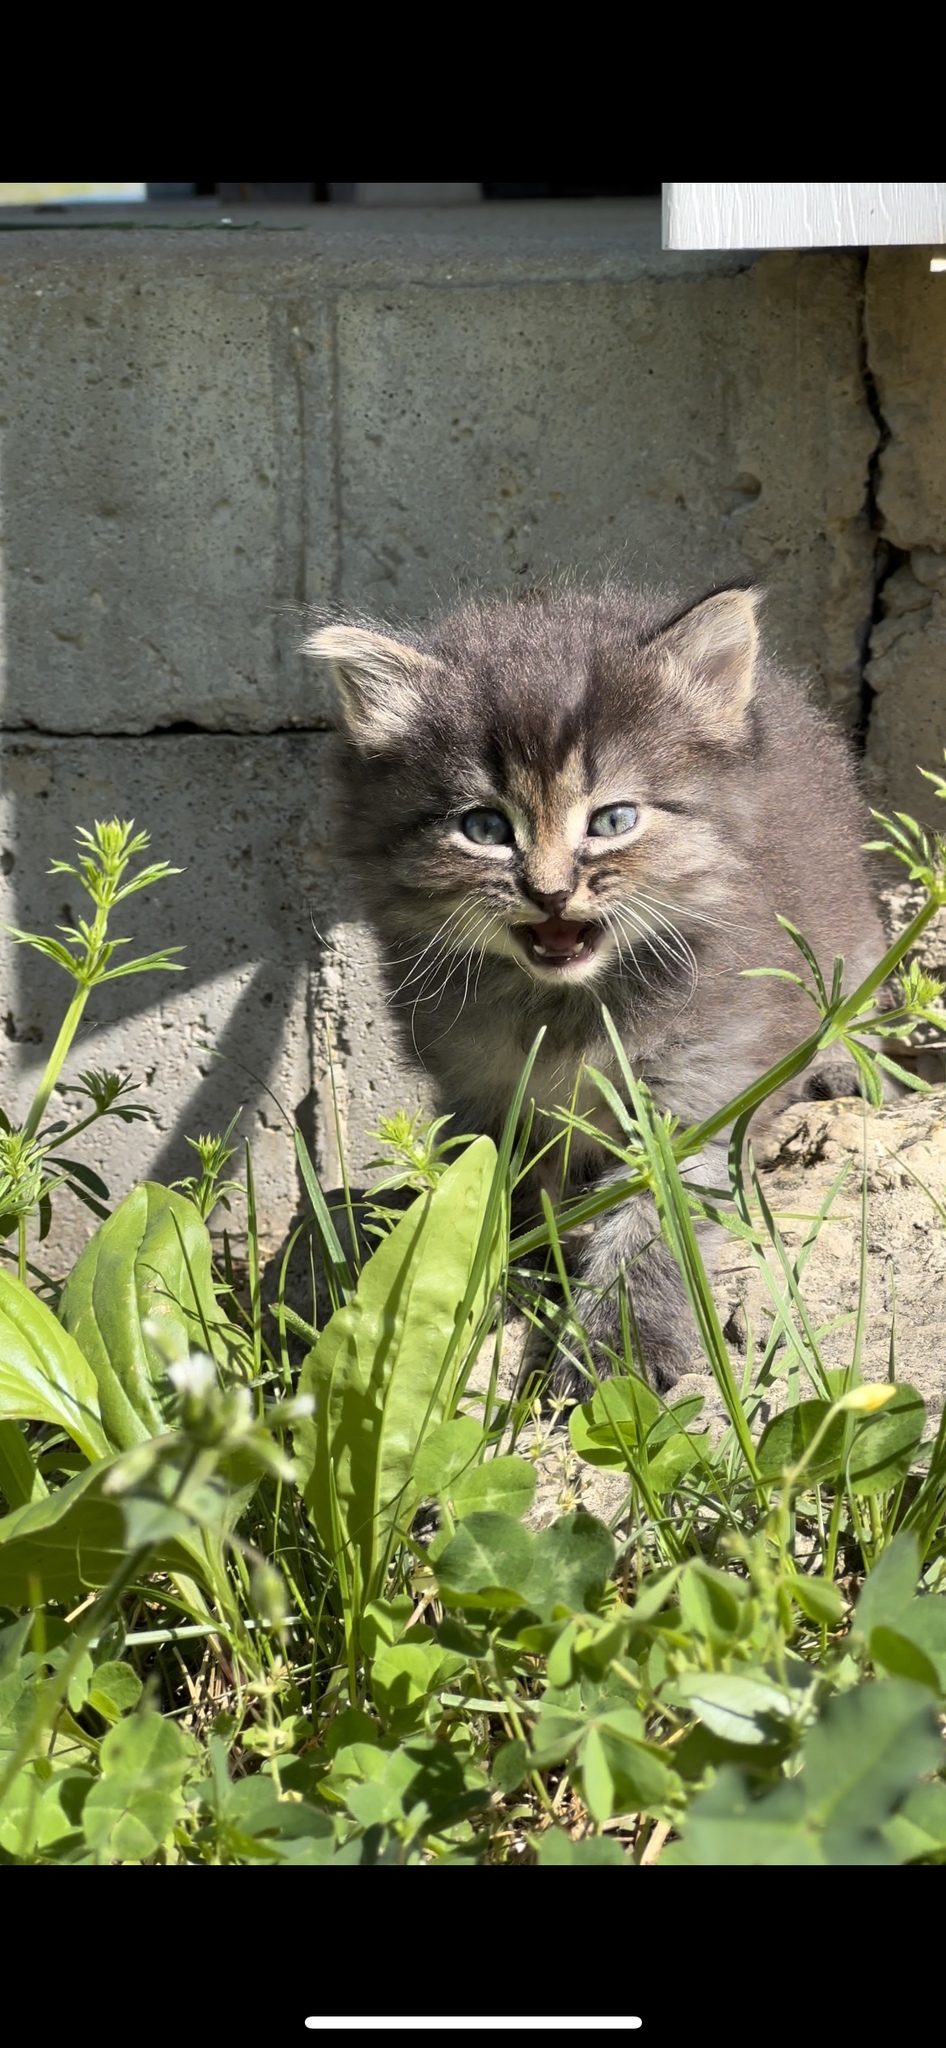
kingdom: Animalia
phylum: Chordata
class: Mammalia
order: Carnivora
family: Felidae
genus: Felis
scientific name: Felis catus
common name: Domestic cat
